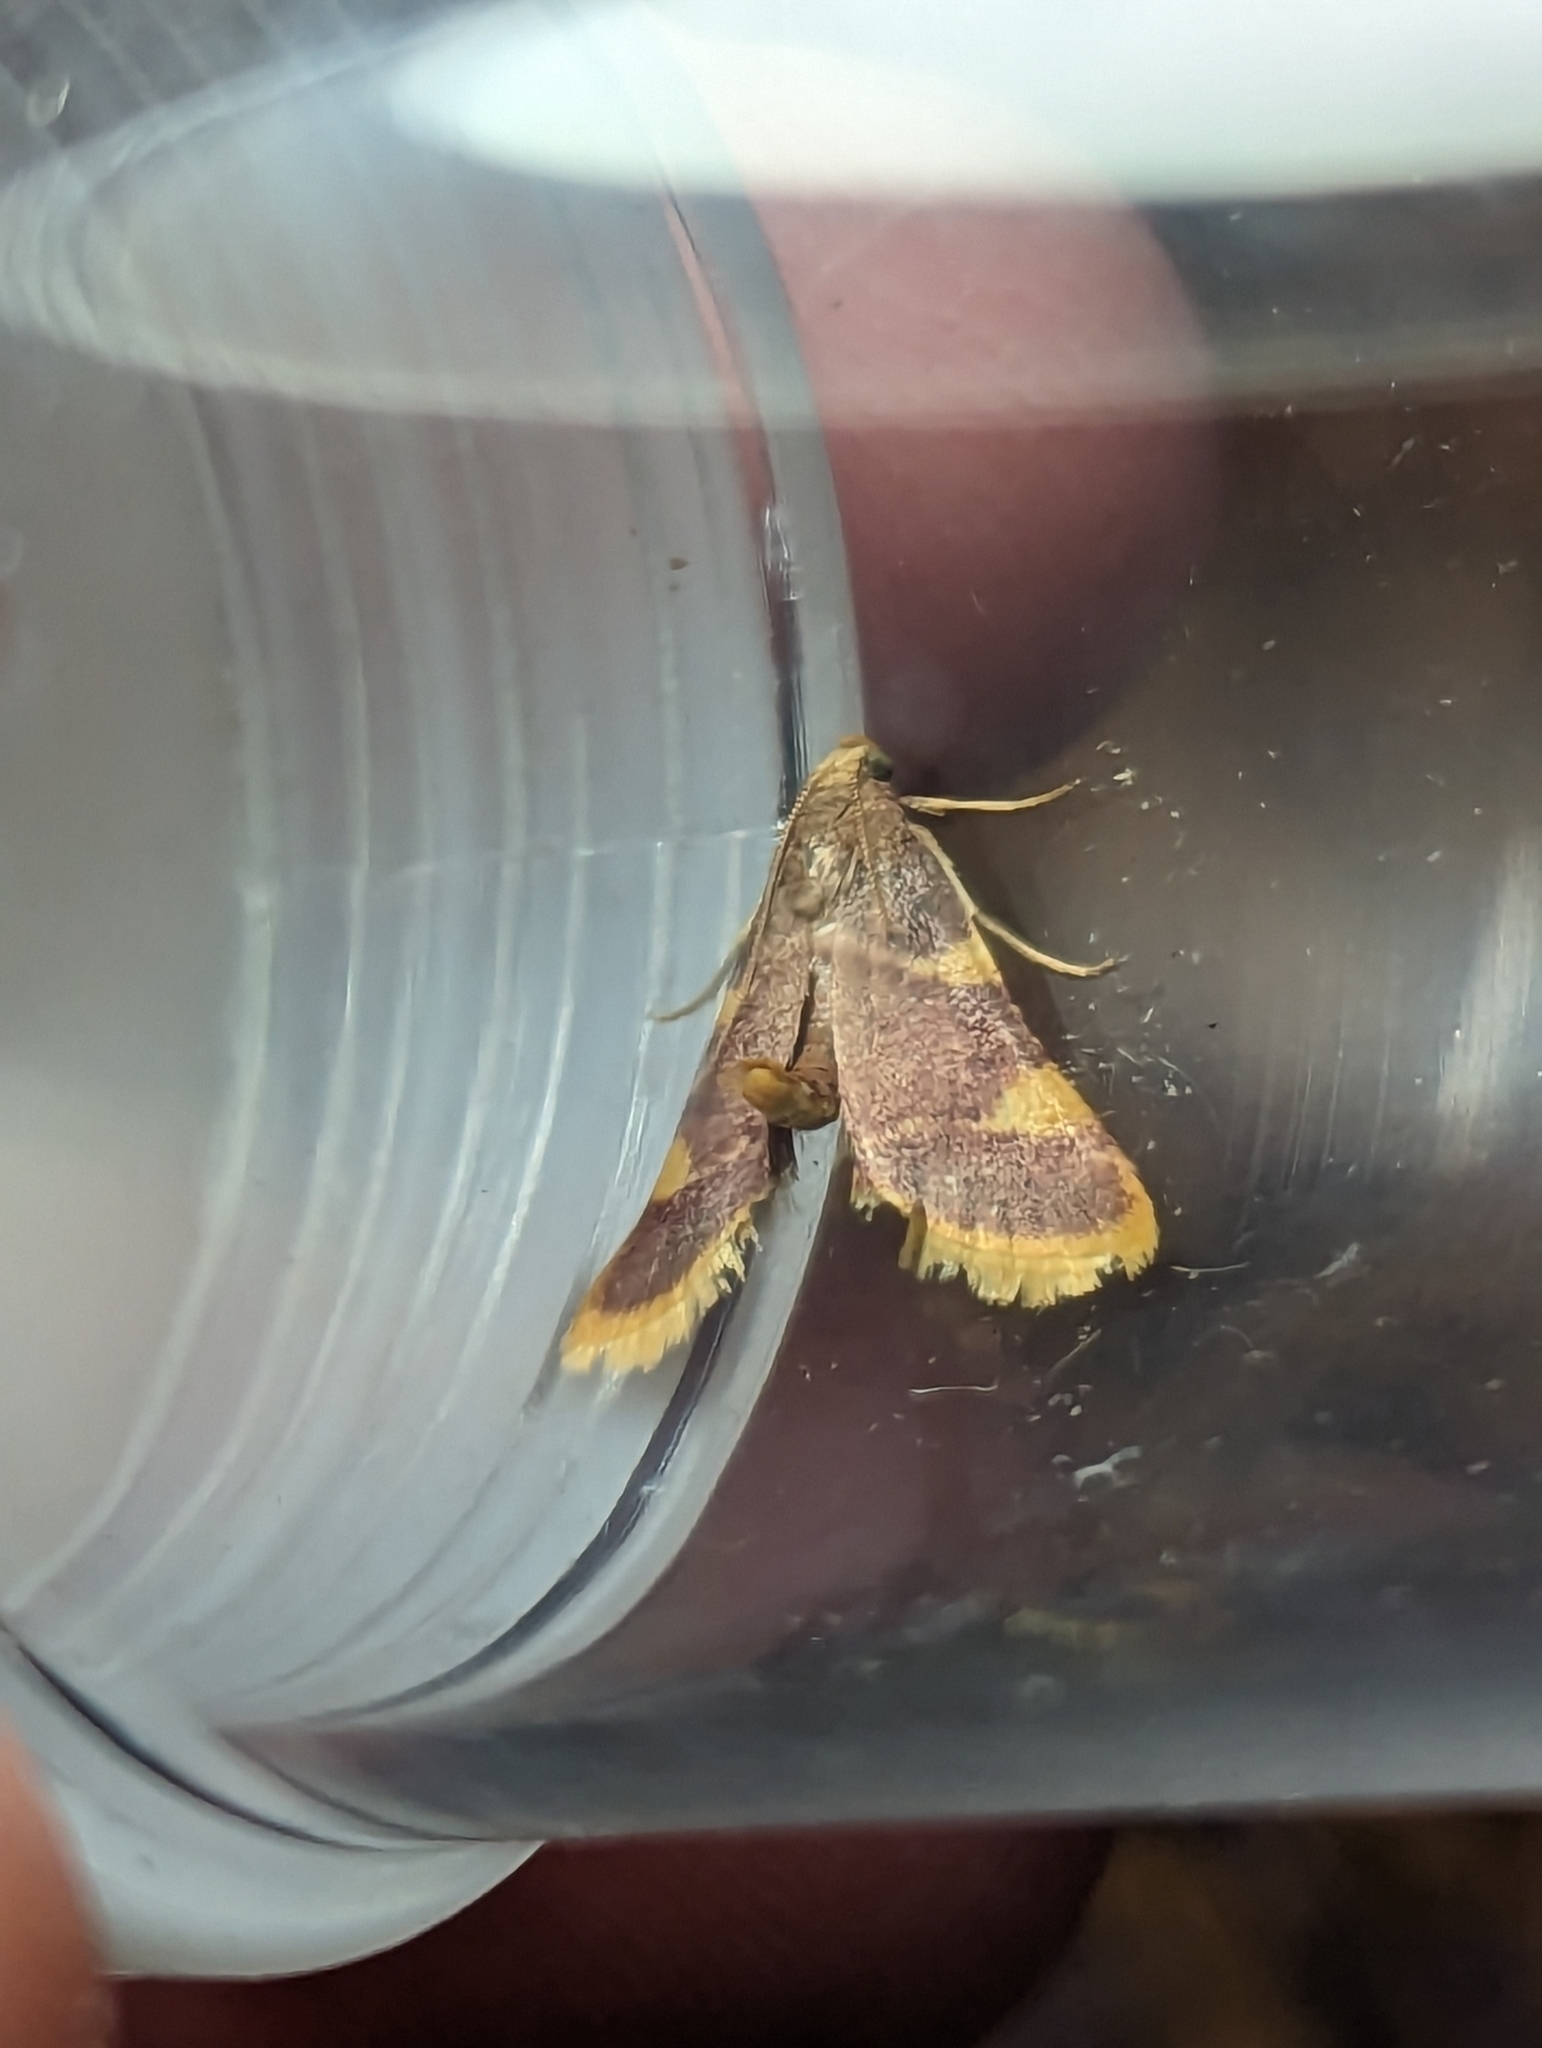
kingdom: Animalia
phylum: Arthropoda
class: Insecta
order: Lepidoptera
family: Pyralidae
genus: Hypsopygia
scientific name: Hypsopygia costalis
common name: Gold triangle
